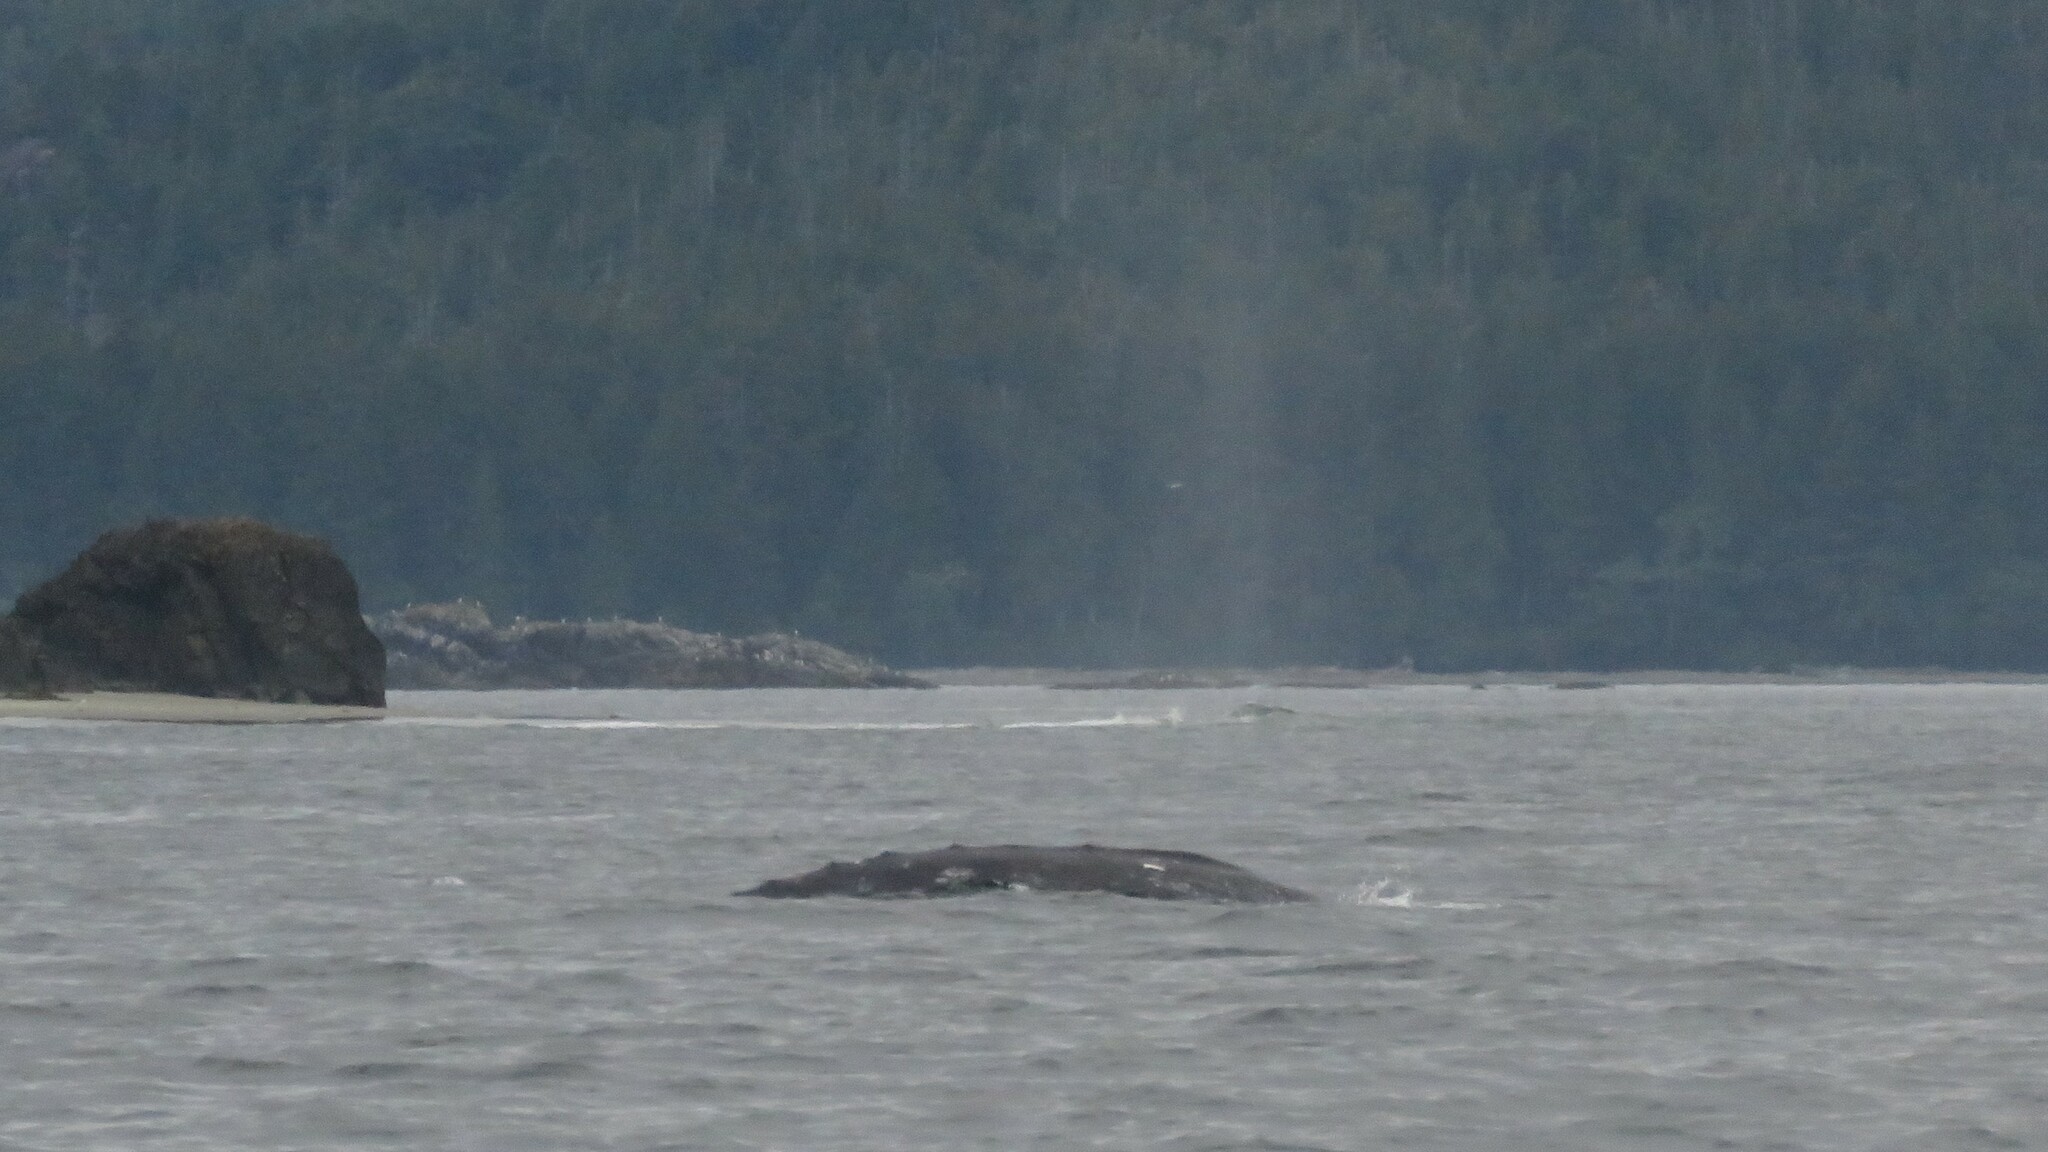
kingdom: Animalia
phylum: Chordata
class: Mammalia
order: Cetacea
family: Eschrichtiidae
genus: Eschrichtius
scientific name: Eschrichtius robustus
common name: Gray whale
